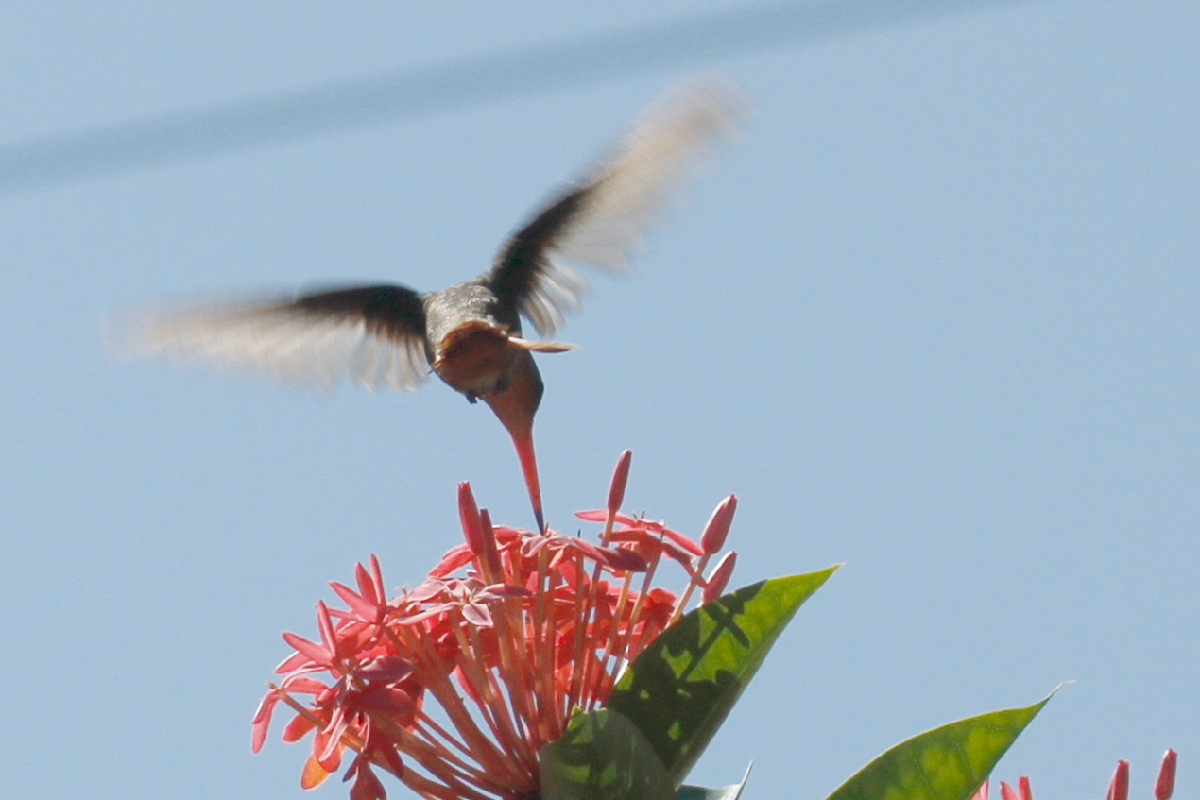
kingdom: Animalia
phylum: Chordata
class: Aves
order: Apodiformes
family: Trochilidae
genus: Amazilia
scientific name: Amazilia rutila
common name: Cinnamon hummingbird
